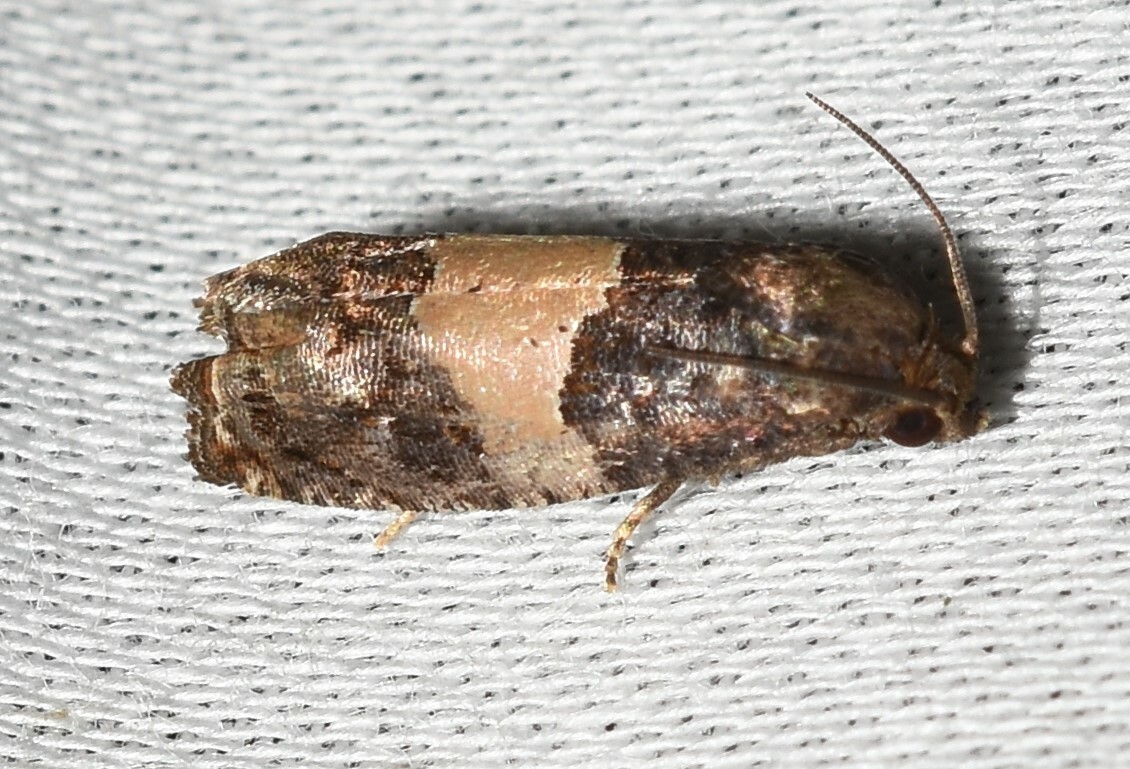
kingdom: Animalia
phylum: Arthropoda
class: Insecta
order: Lepidoptera
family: Tortricidae
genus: Epiblema
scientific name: Epiblema glenni
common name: Glenn's epiblema
